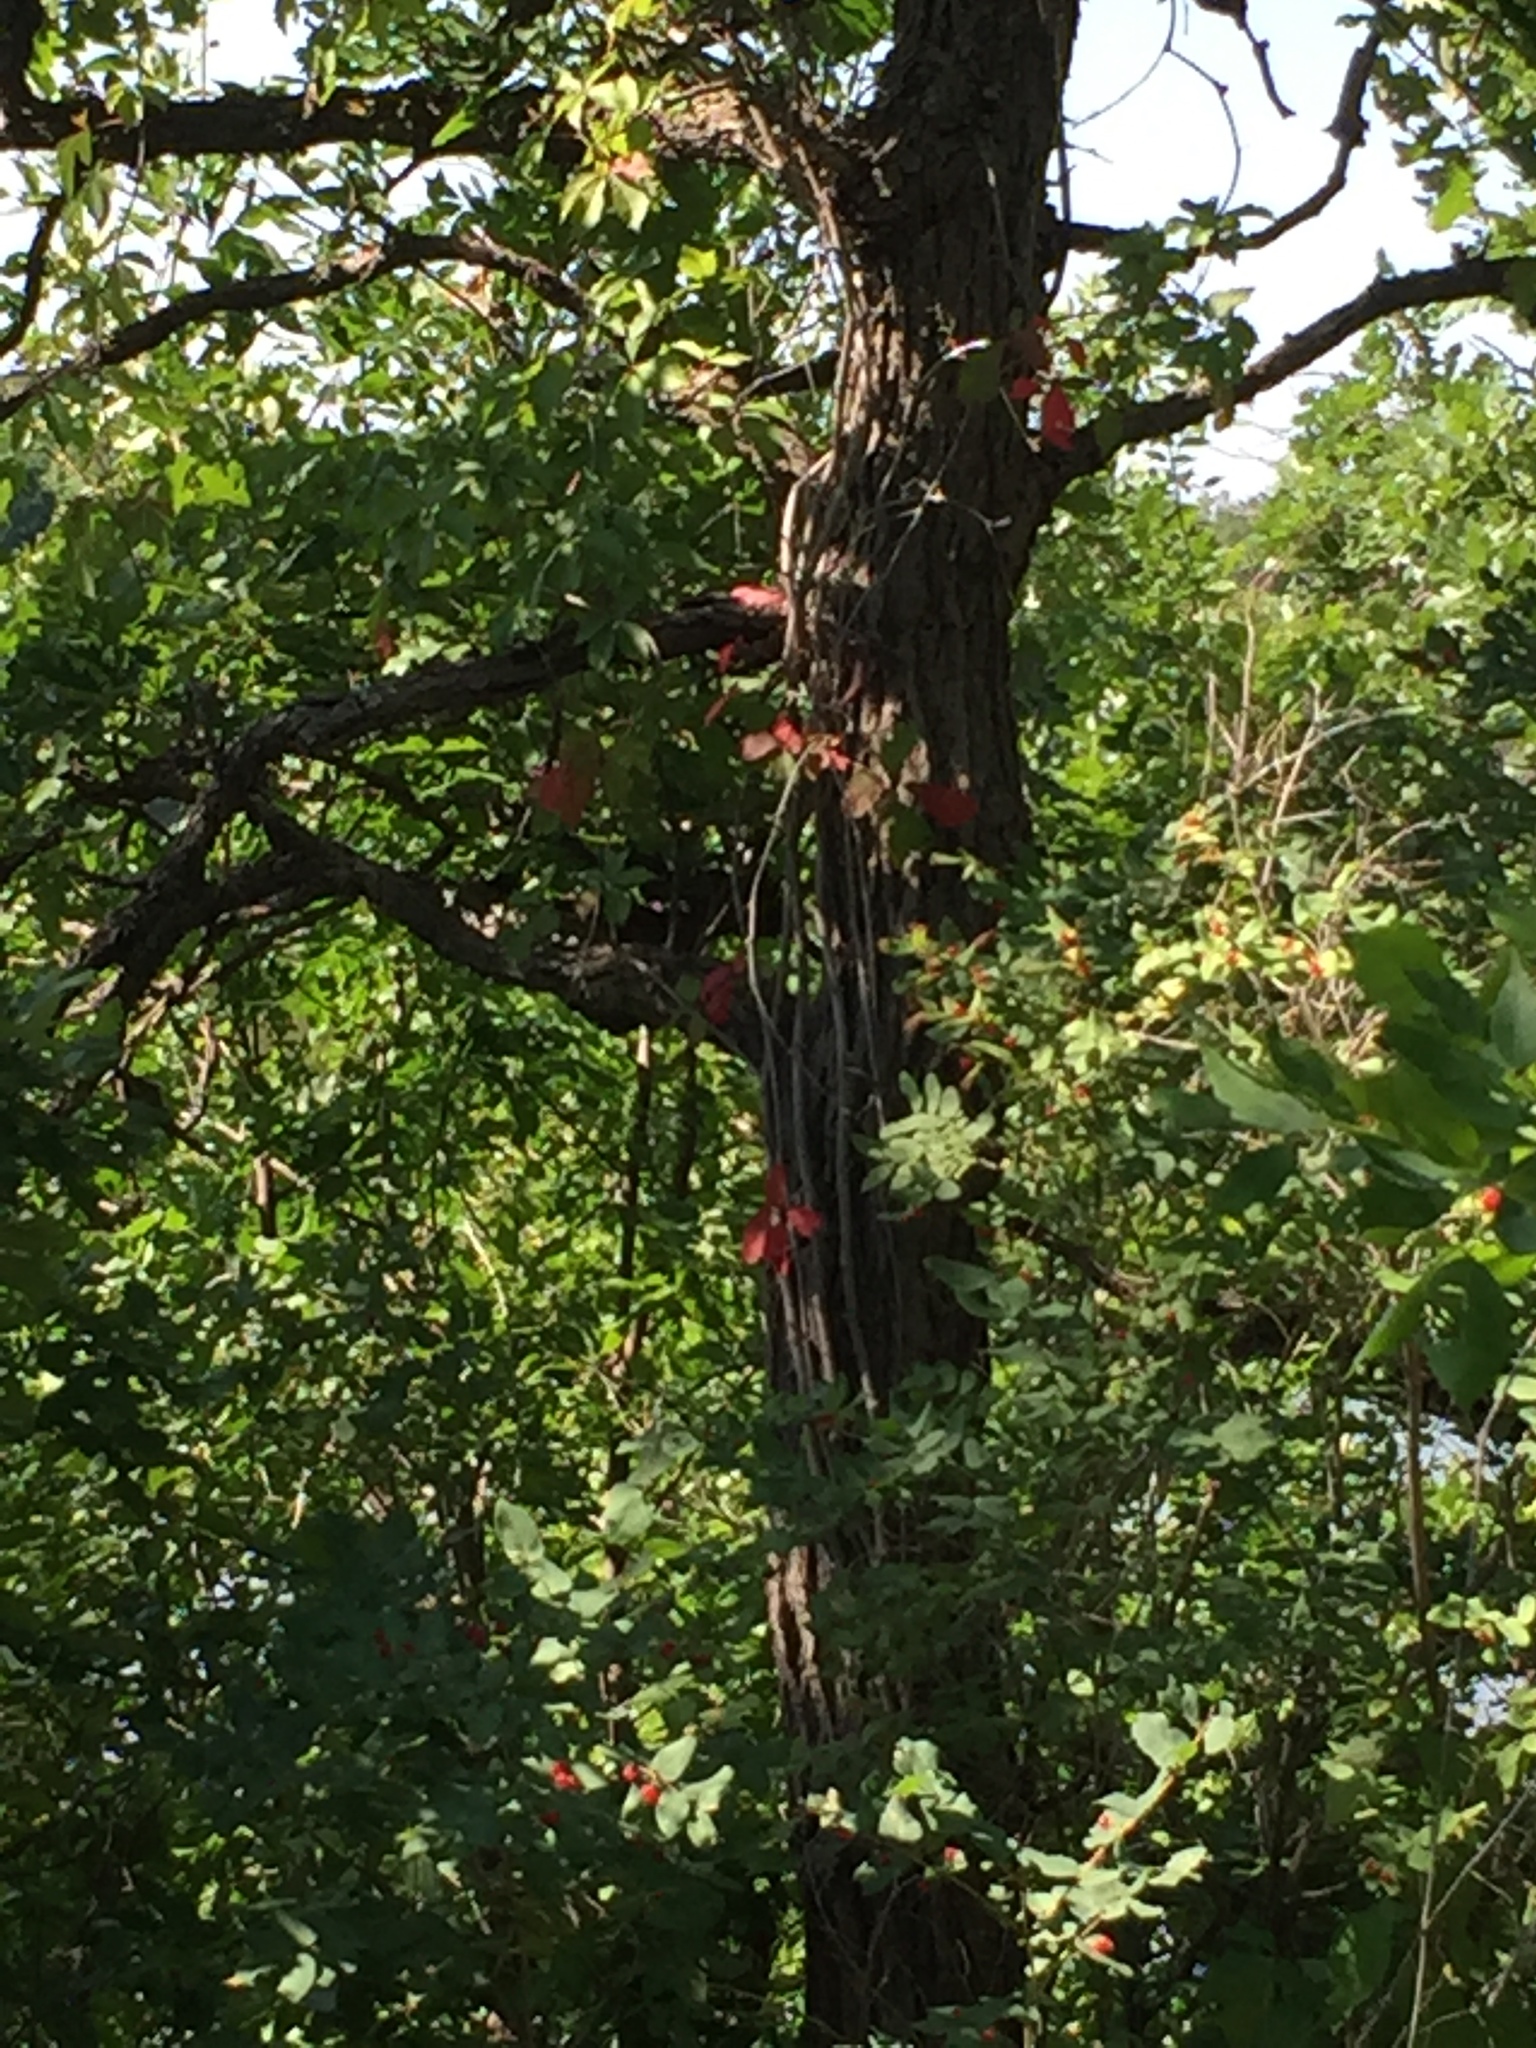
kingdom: Plantae
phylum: Tracheophyta
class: Magnoliopsida
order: Vitales
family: Vitaceae
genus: Parthenocissus
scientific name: Parthenocissus quinquefolia
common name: Virginia-creeper
